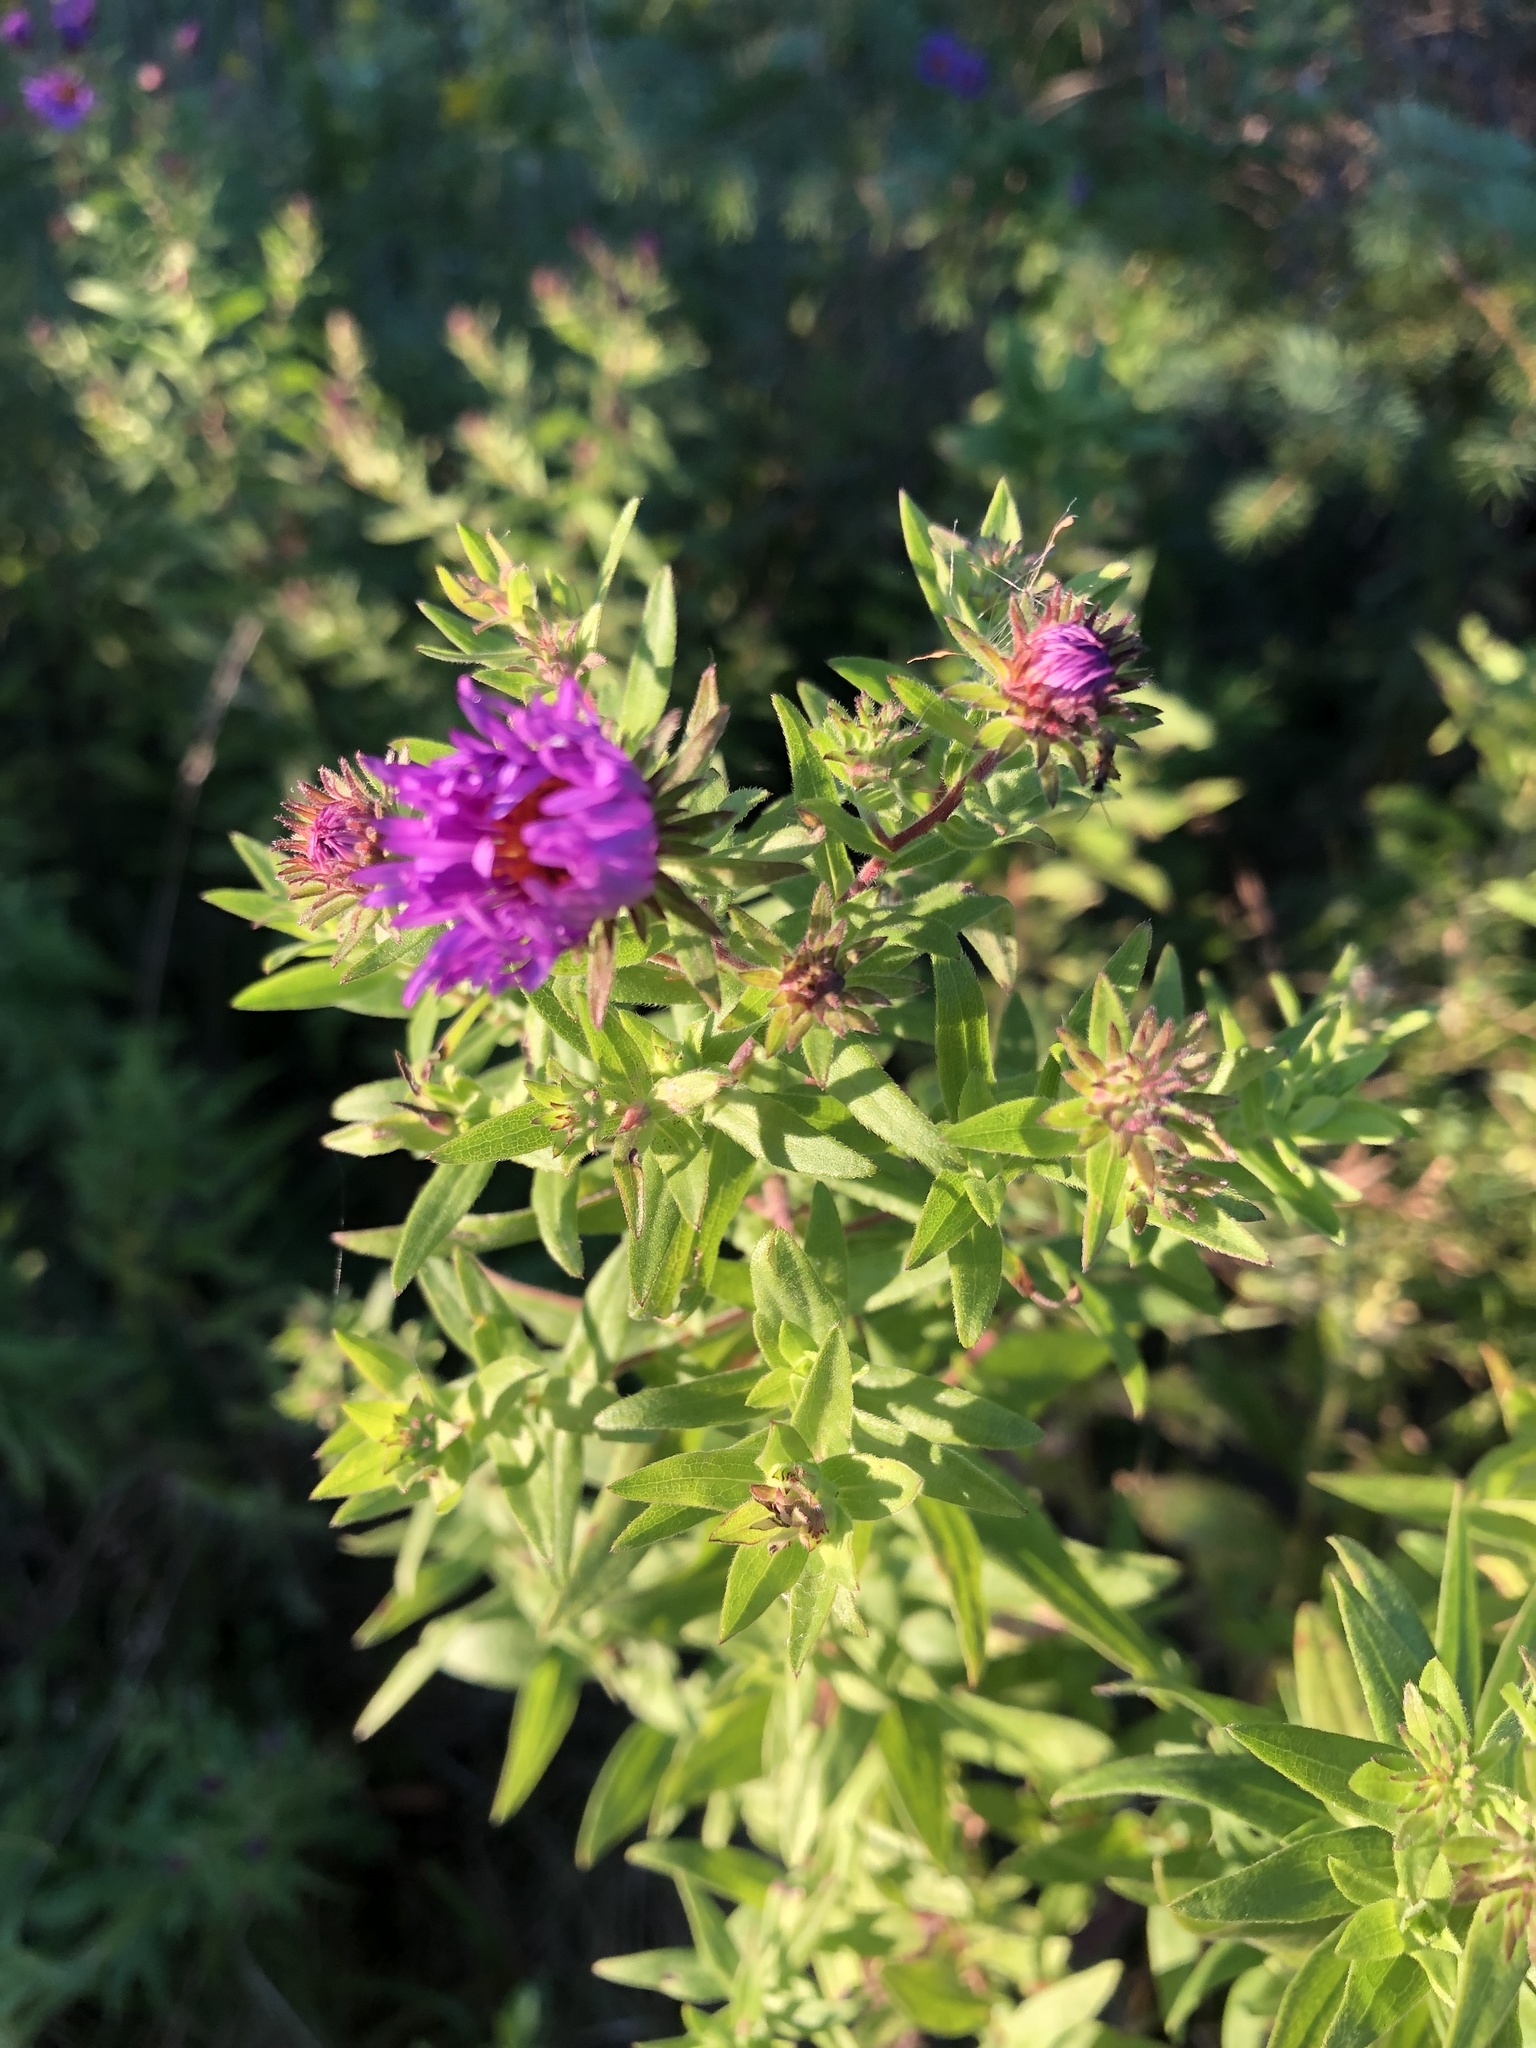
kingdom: Plantae
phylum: Tracheophyta
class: Magnoliopsida
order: Asterales
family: Asteraceae
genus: Symphyotrichum
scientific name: Symphyotrichum novae-angliae
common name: Michaelmas daisy
